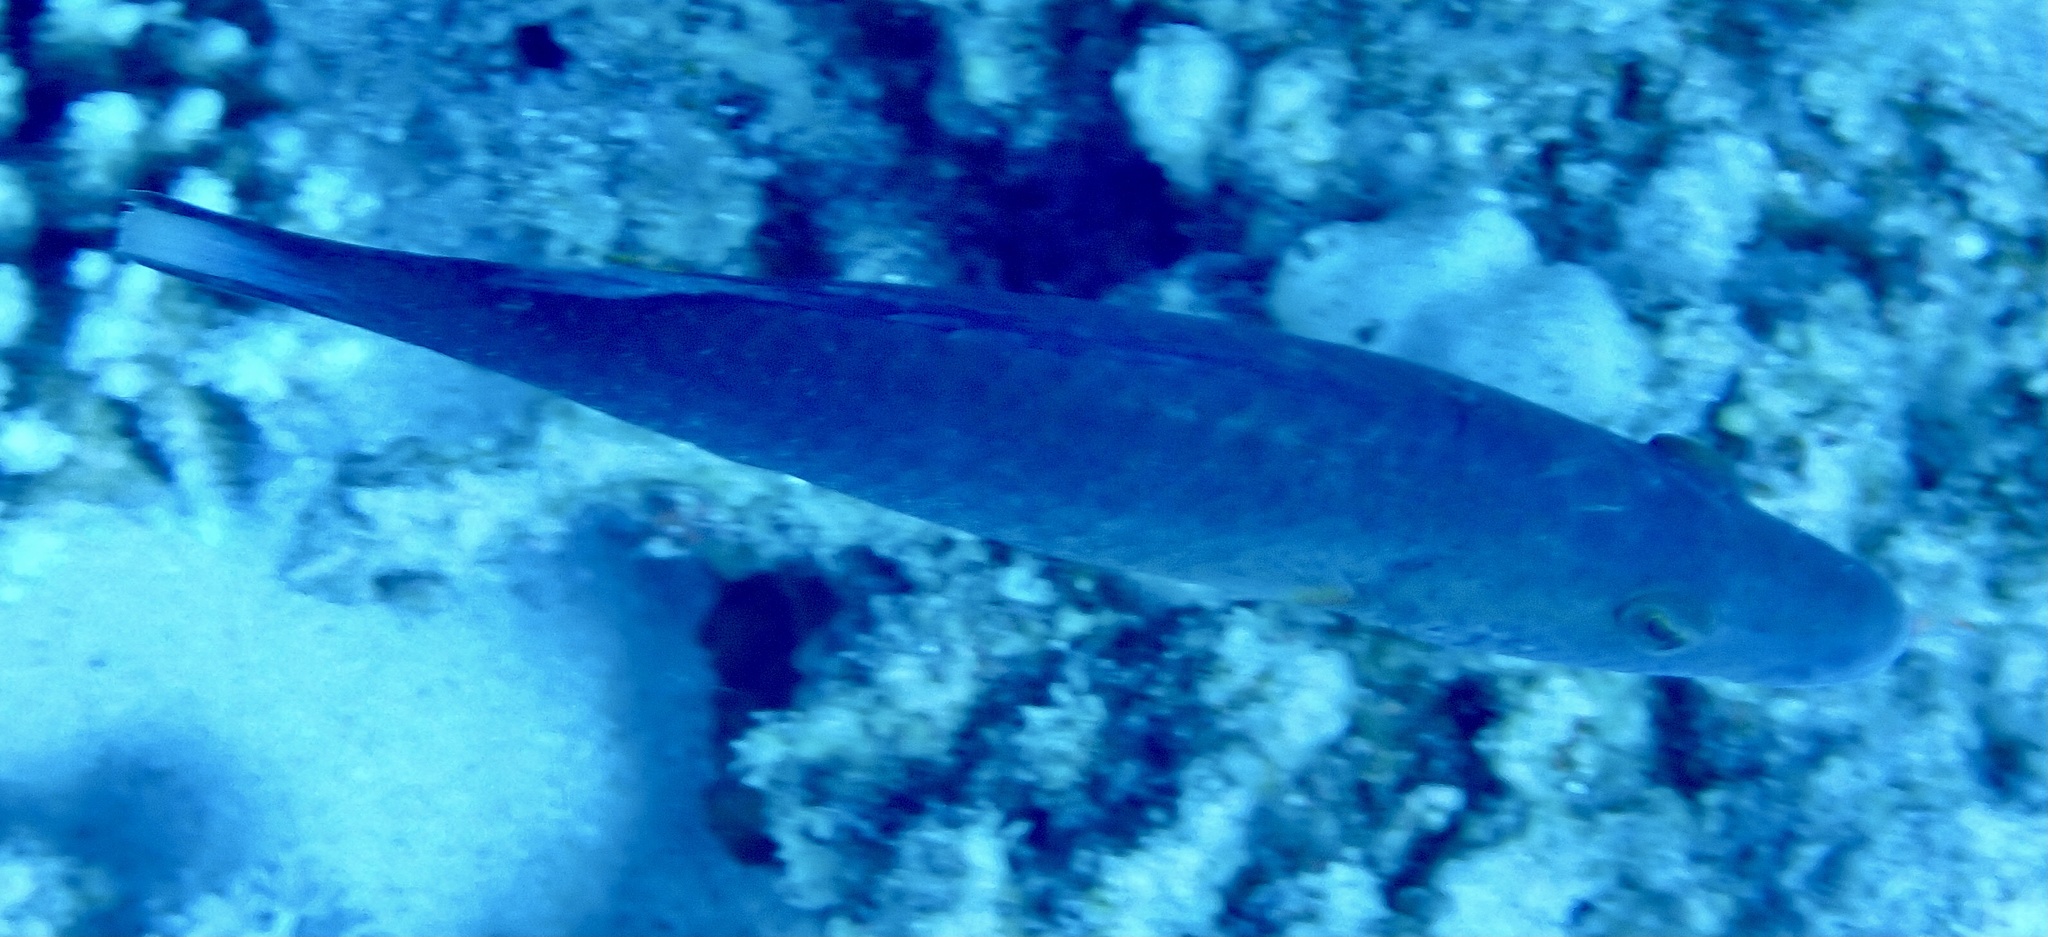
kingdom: Animalia
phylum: Chordata
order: Perciformes
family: Labridae
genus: Oxycheilinus
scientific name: Oxycheilinus digramma
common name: Bandcheek wrasse
